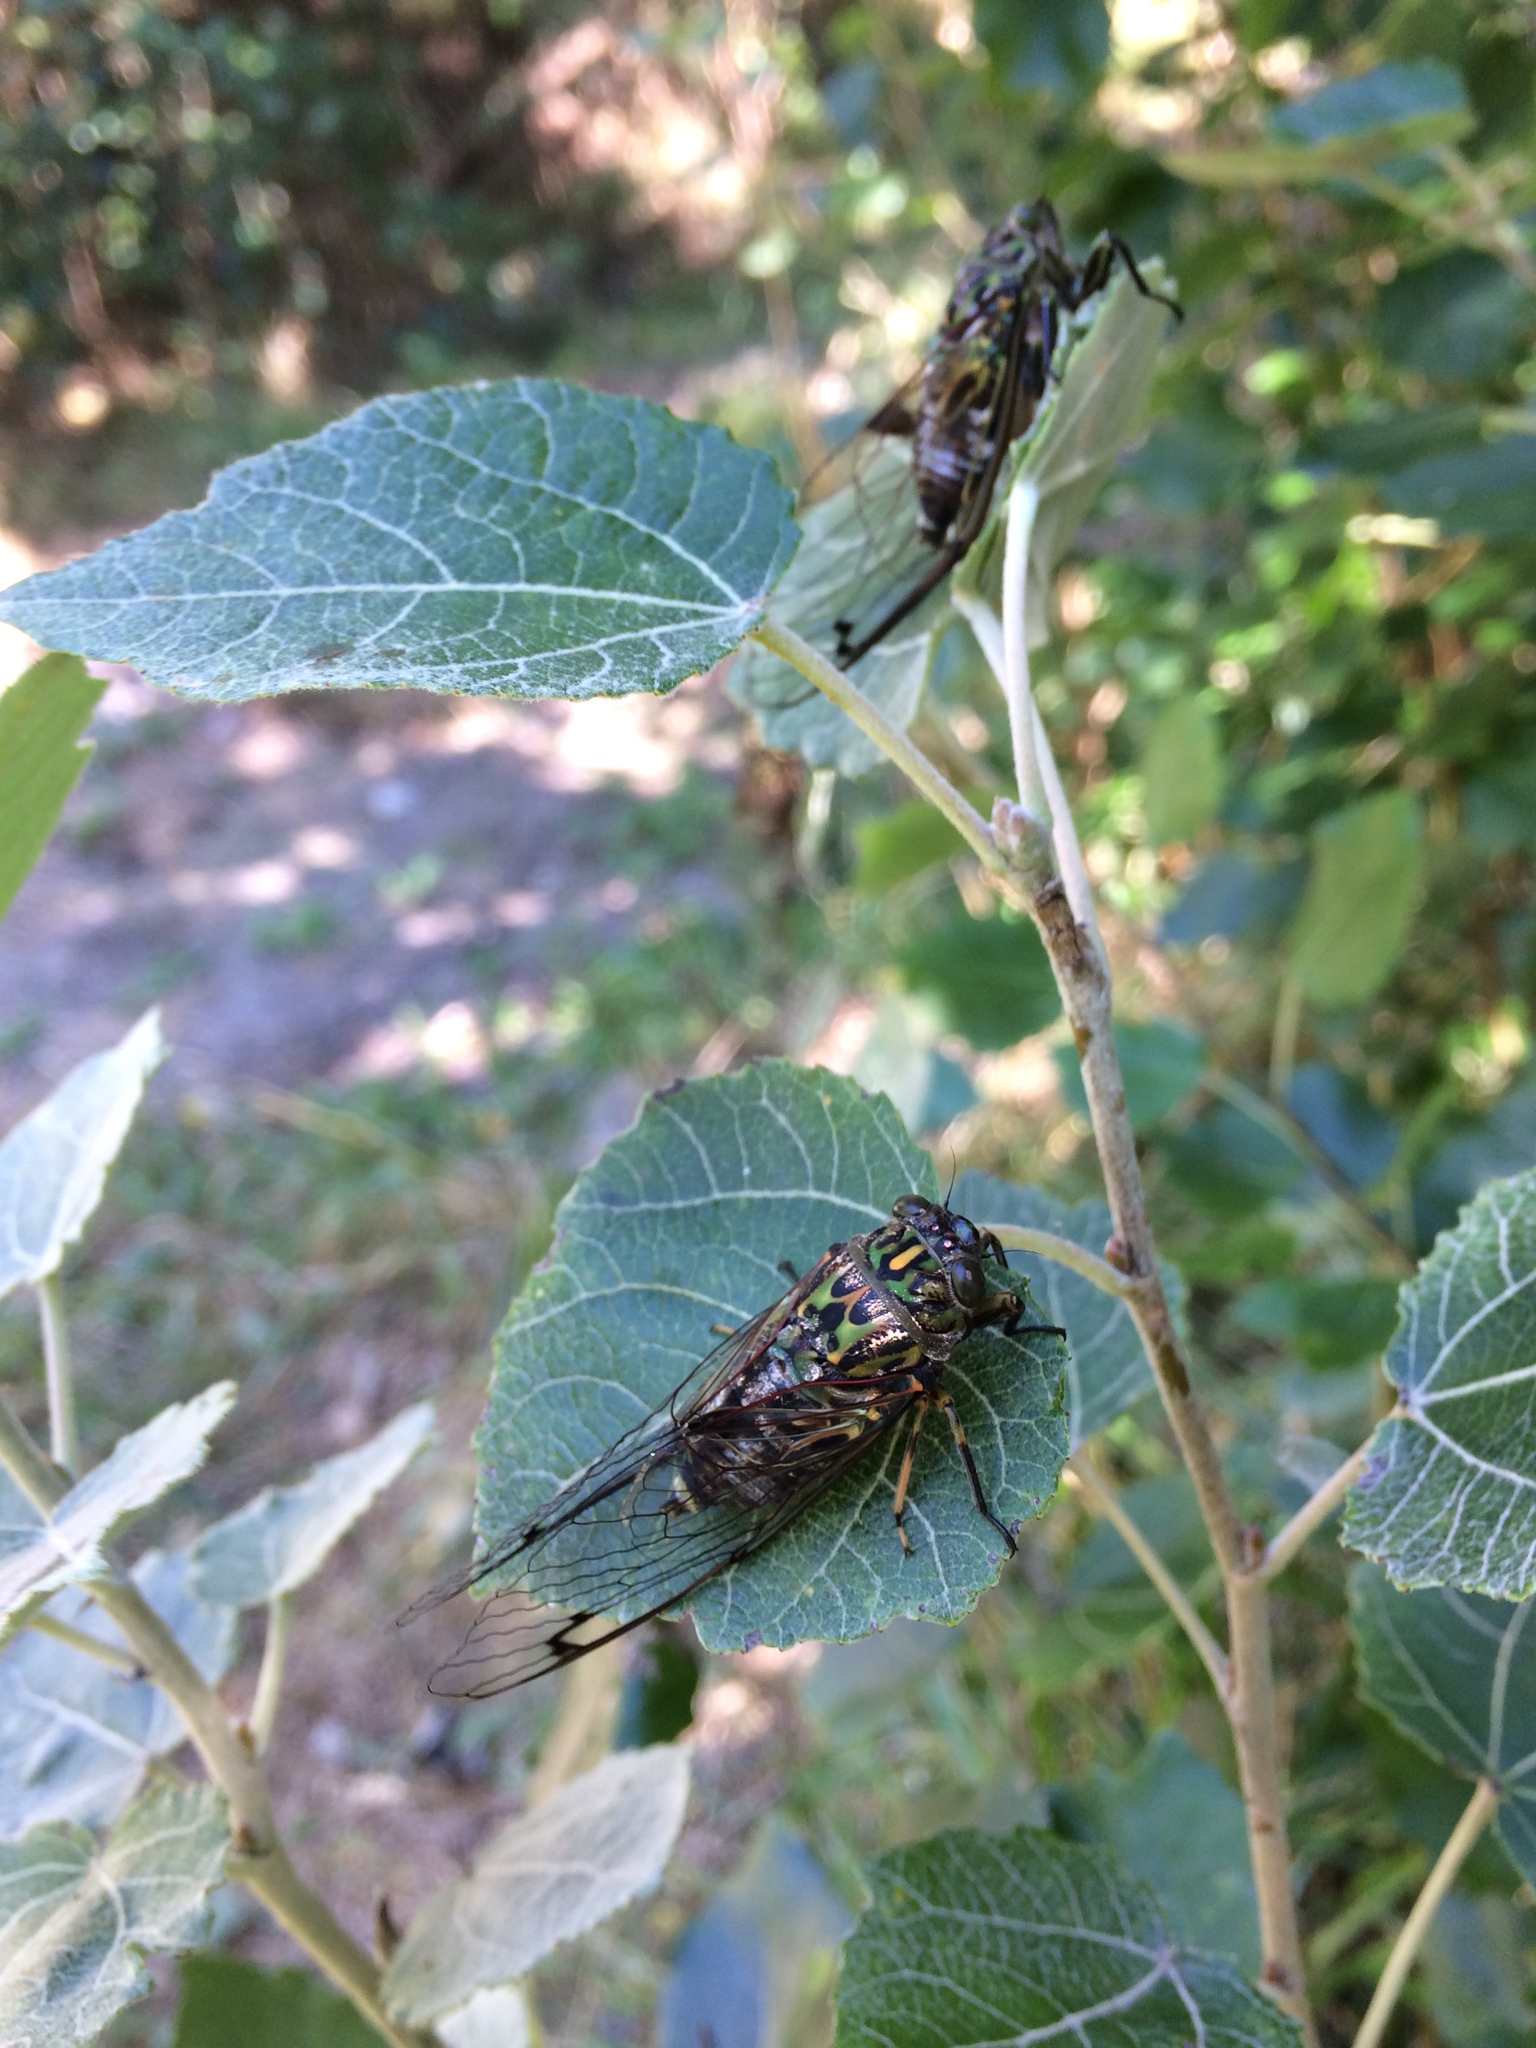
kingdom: Animalia
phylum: Arthropoda
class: Insecta
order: Hemiptera
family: Cicadidae
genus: Amphipsalta
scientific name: Amphipsalta zelandica
